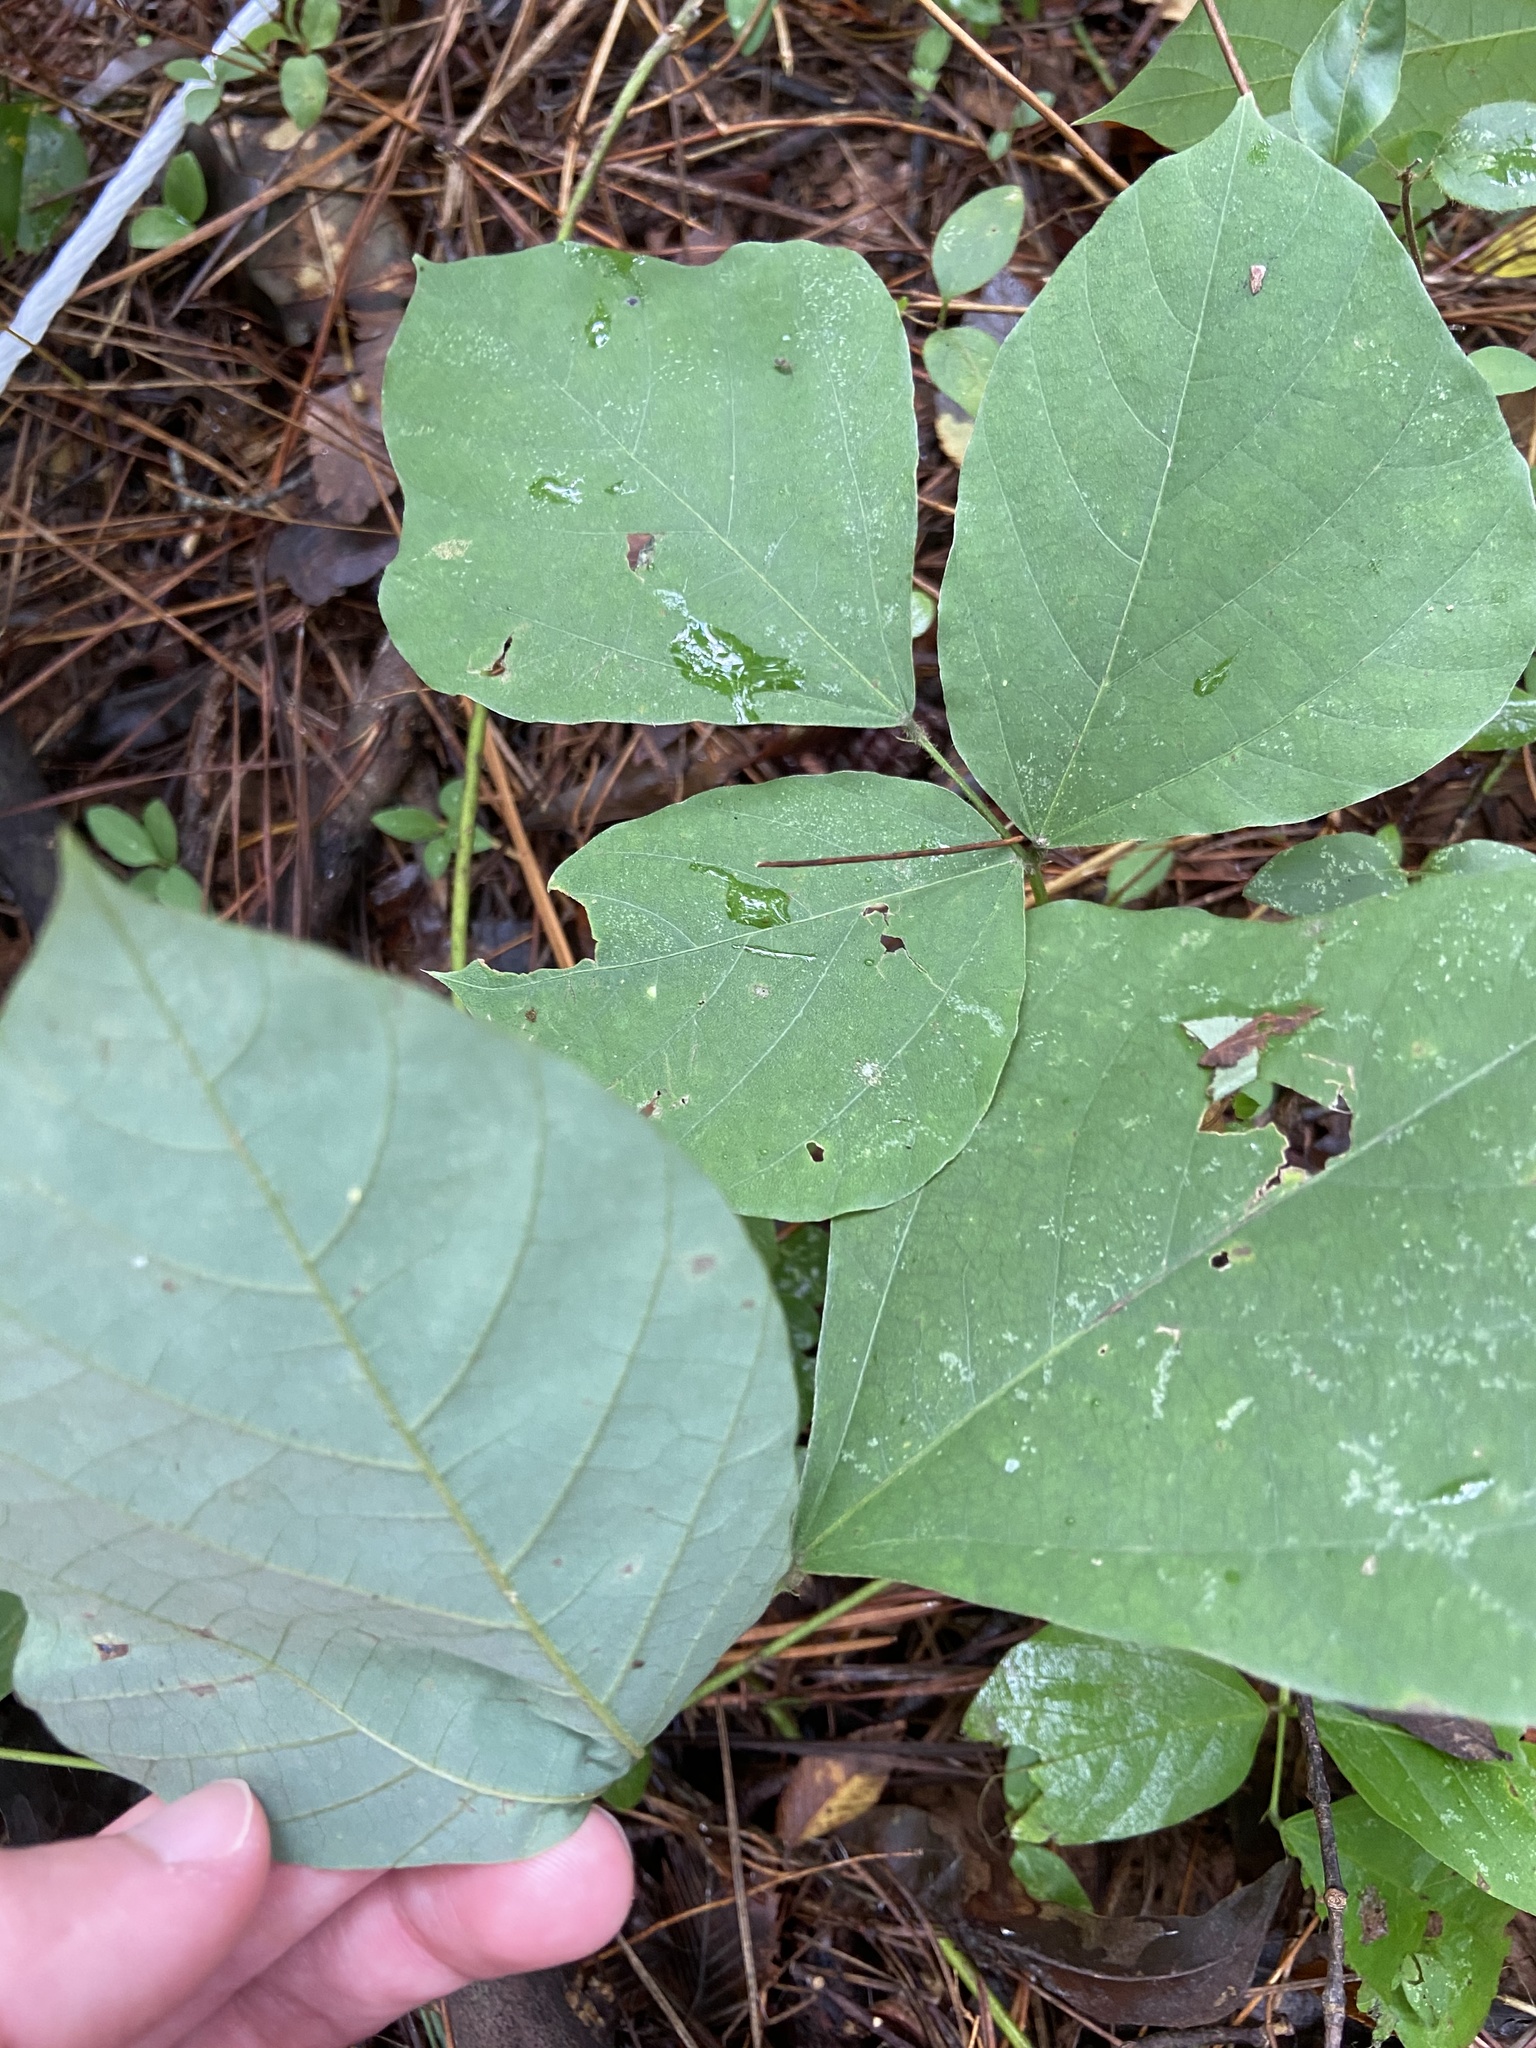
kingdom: Plantae
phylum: Tracheophyta
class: Magnoliopsida
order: Fabales
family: Fabaceae
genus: Pueraria
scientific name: Pueraria montana
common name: Kudzu
